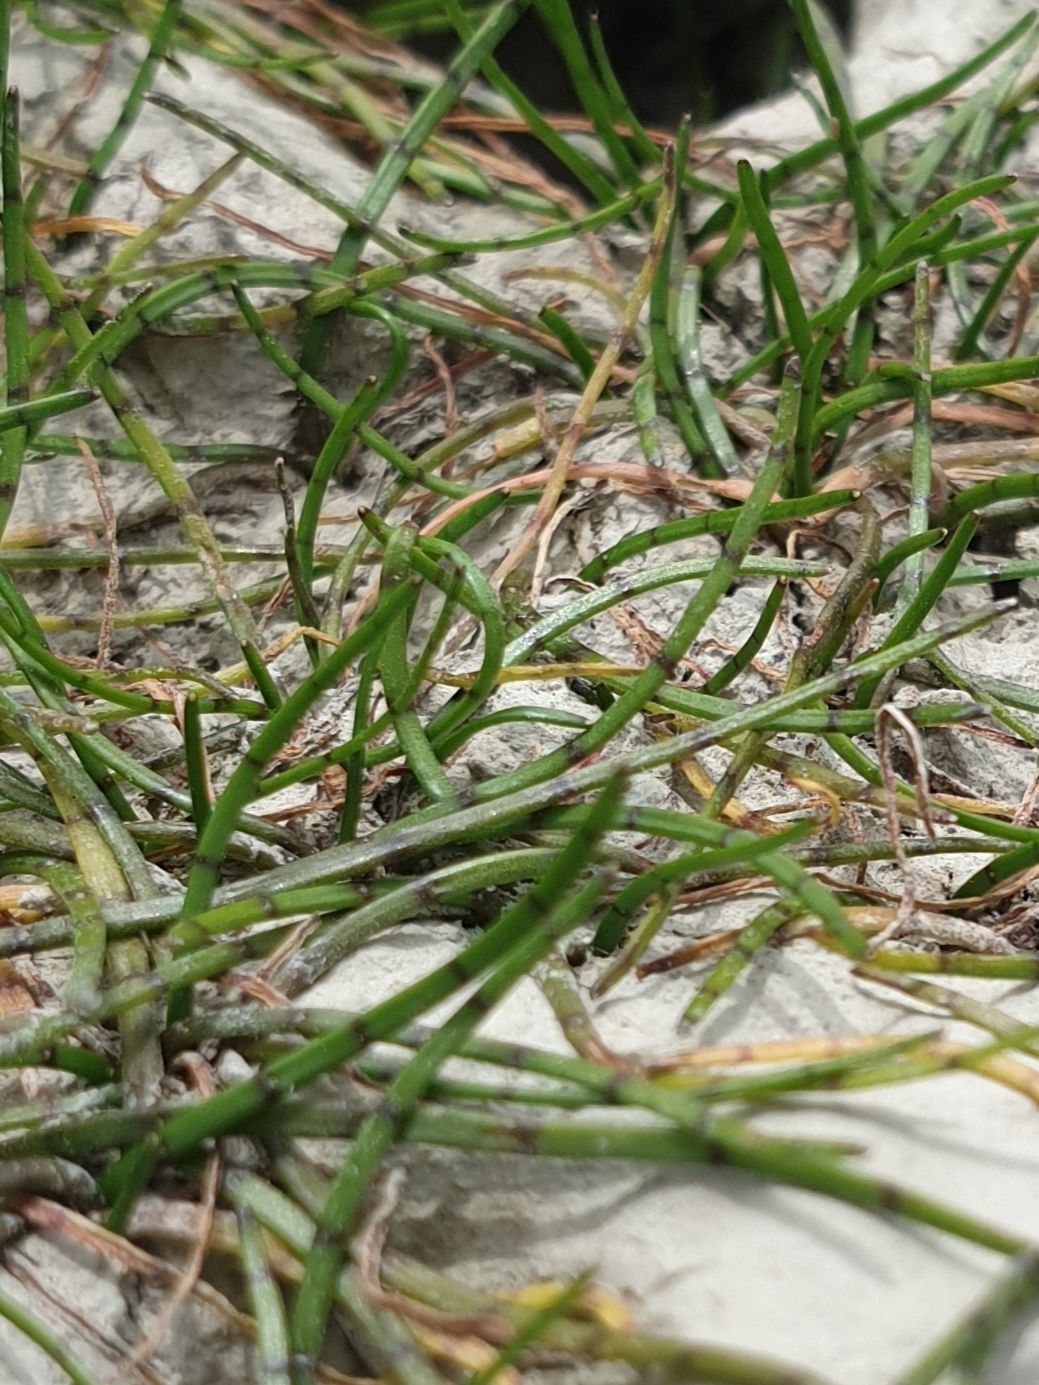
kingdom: Plantae
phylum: Tracheophyta
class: Magnoliopsida
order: Apiales
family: Apiaceae
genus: Lilaeopsis
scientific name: Lilaeopsis novae-zelandiae
